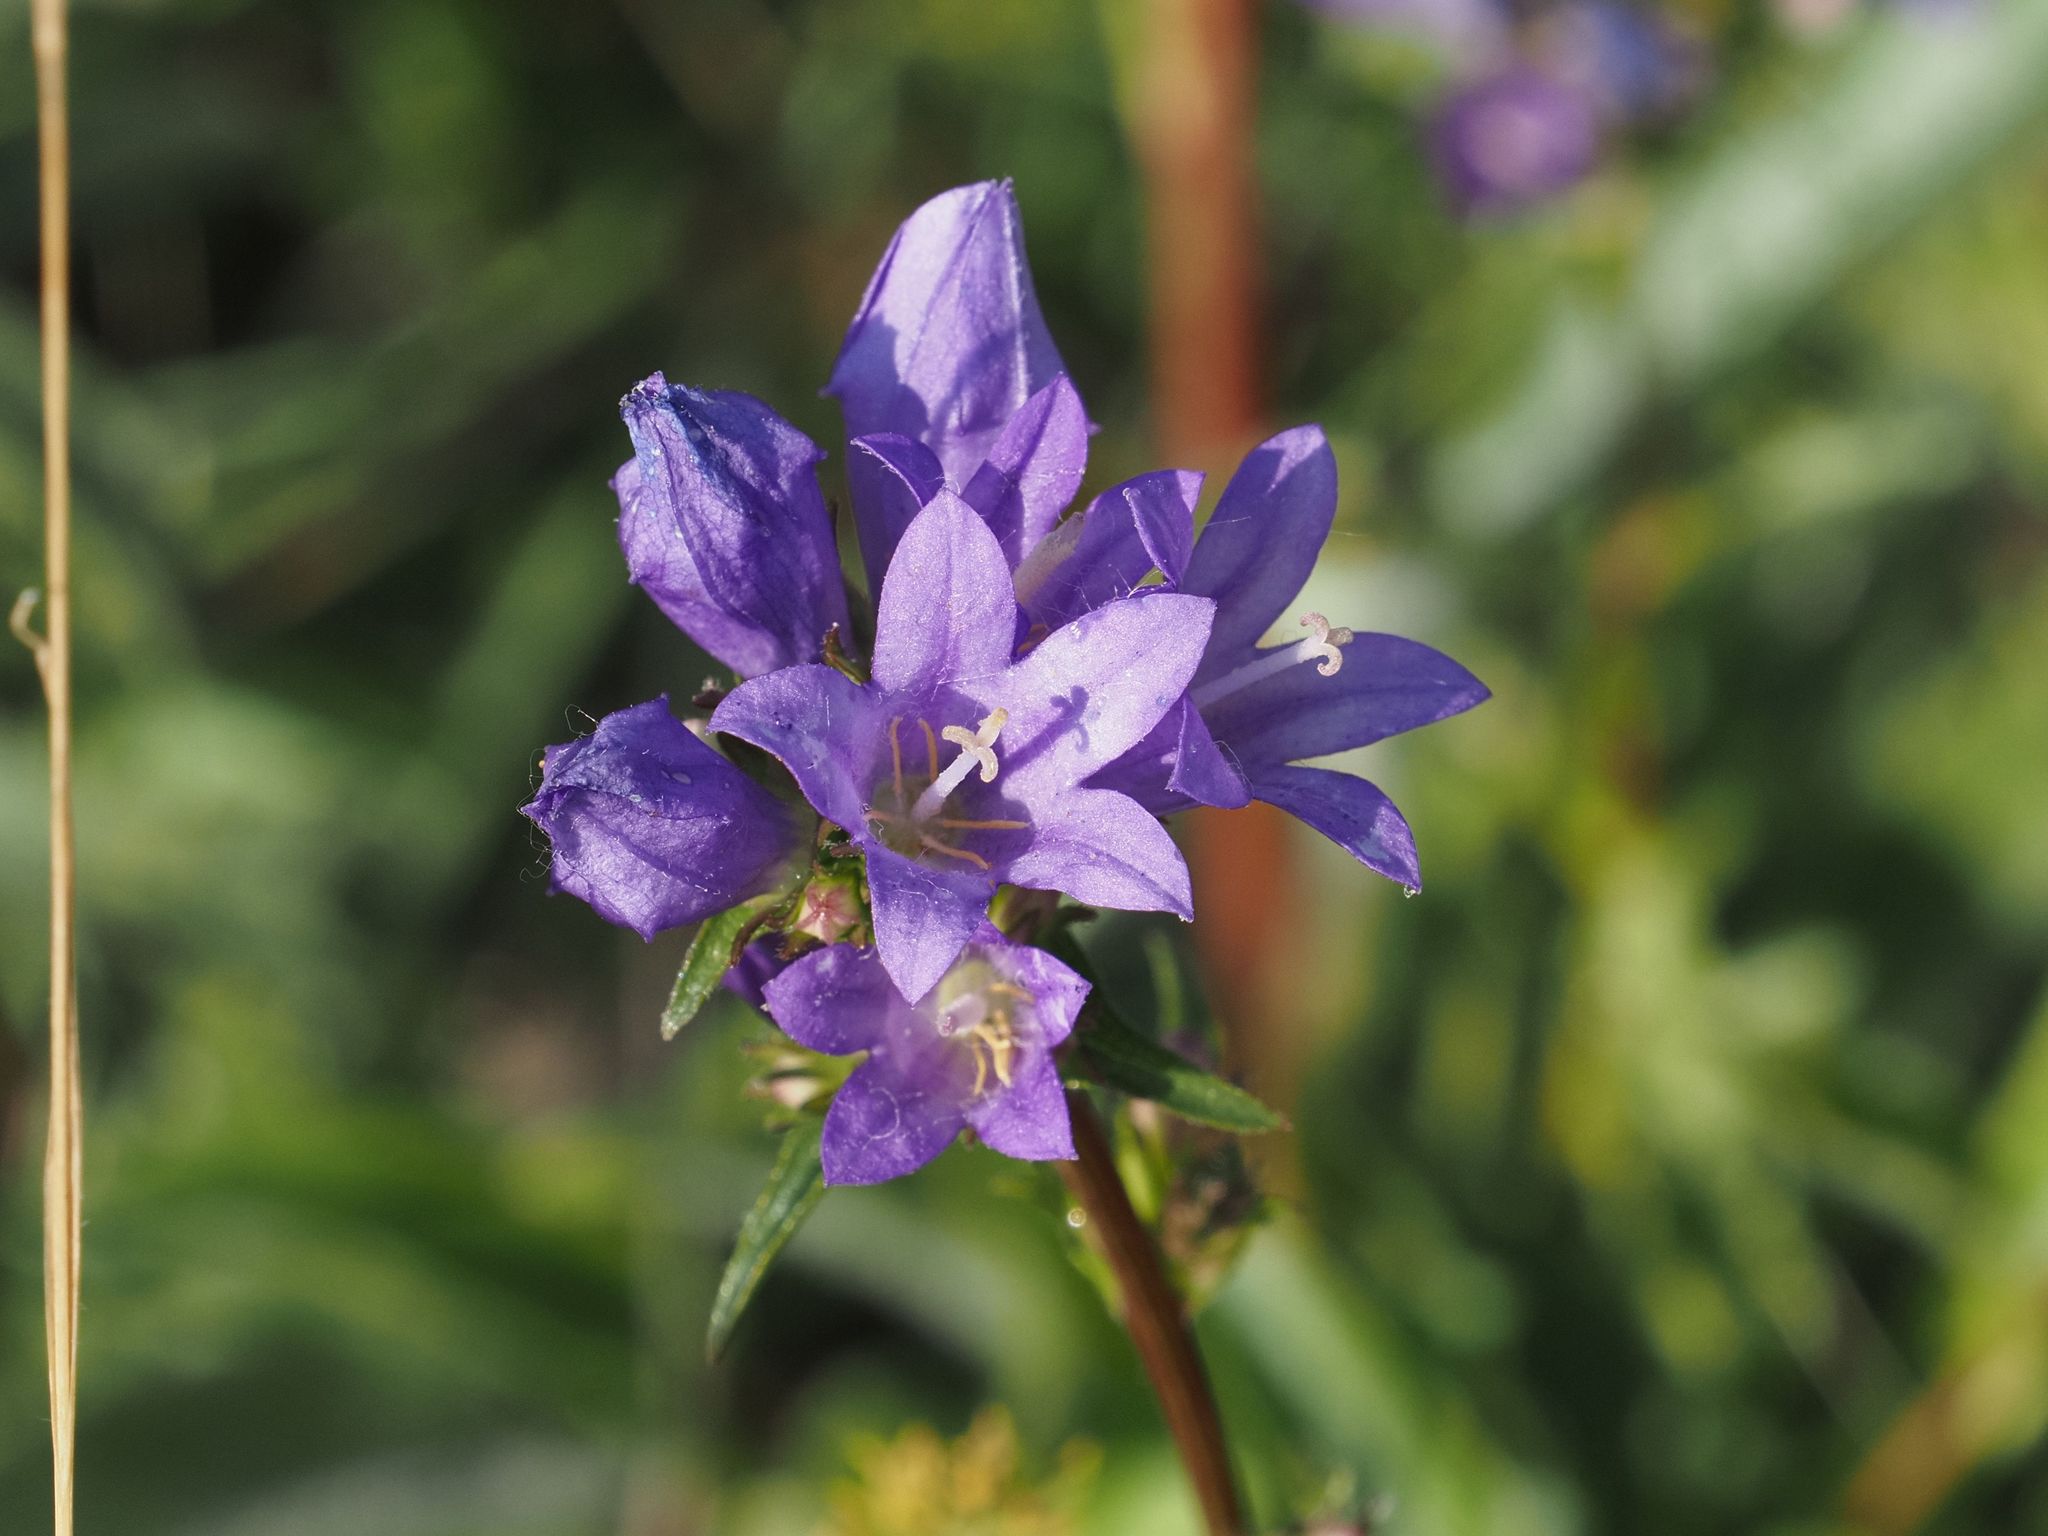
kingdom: Plantae
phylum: Tracheophyta
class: Magnoliopsida
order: Asterales
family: Campanulaceae
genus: Campanula
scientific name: Campanula glomerata
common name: Clustered bellflower
